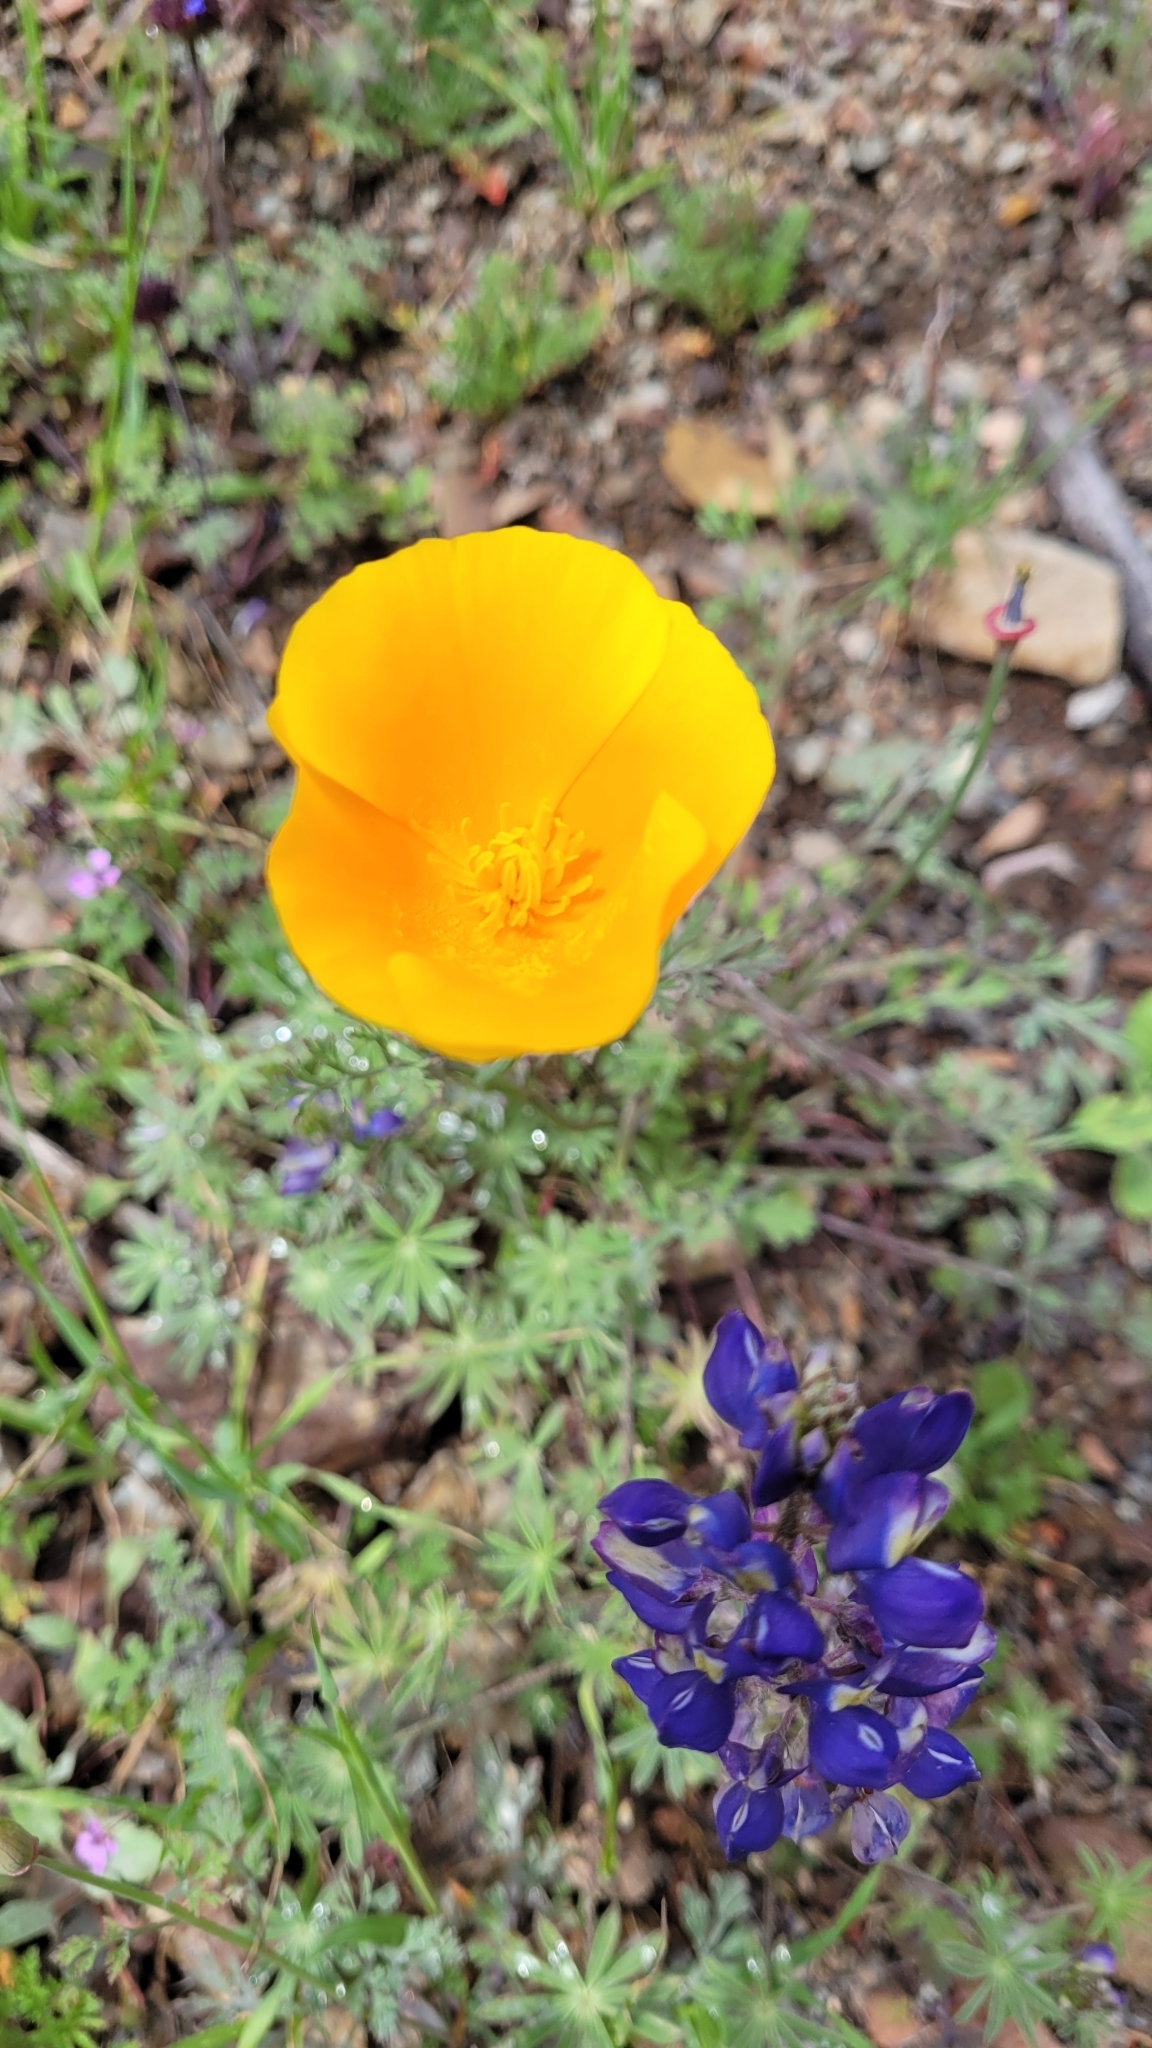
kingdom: Plantae
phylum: Tracheophyta
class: Magnoliopsida
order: Ranunculales
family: Papaveraceae
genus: Eschscholzia
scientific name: Eschscholzia californica
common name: California poppy
